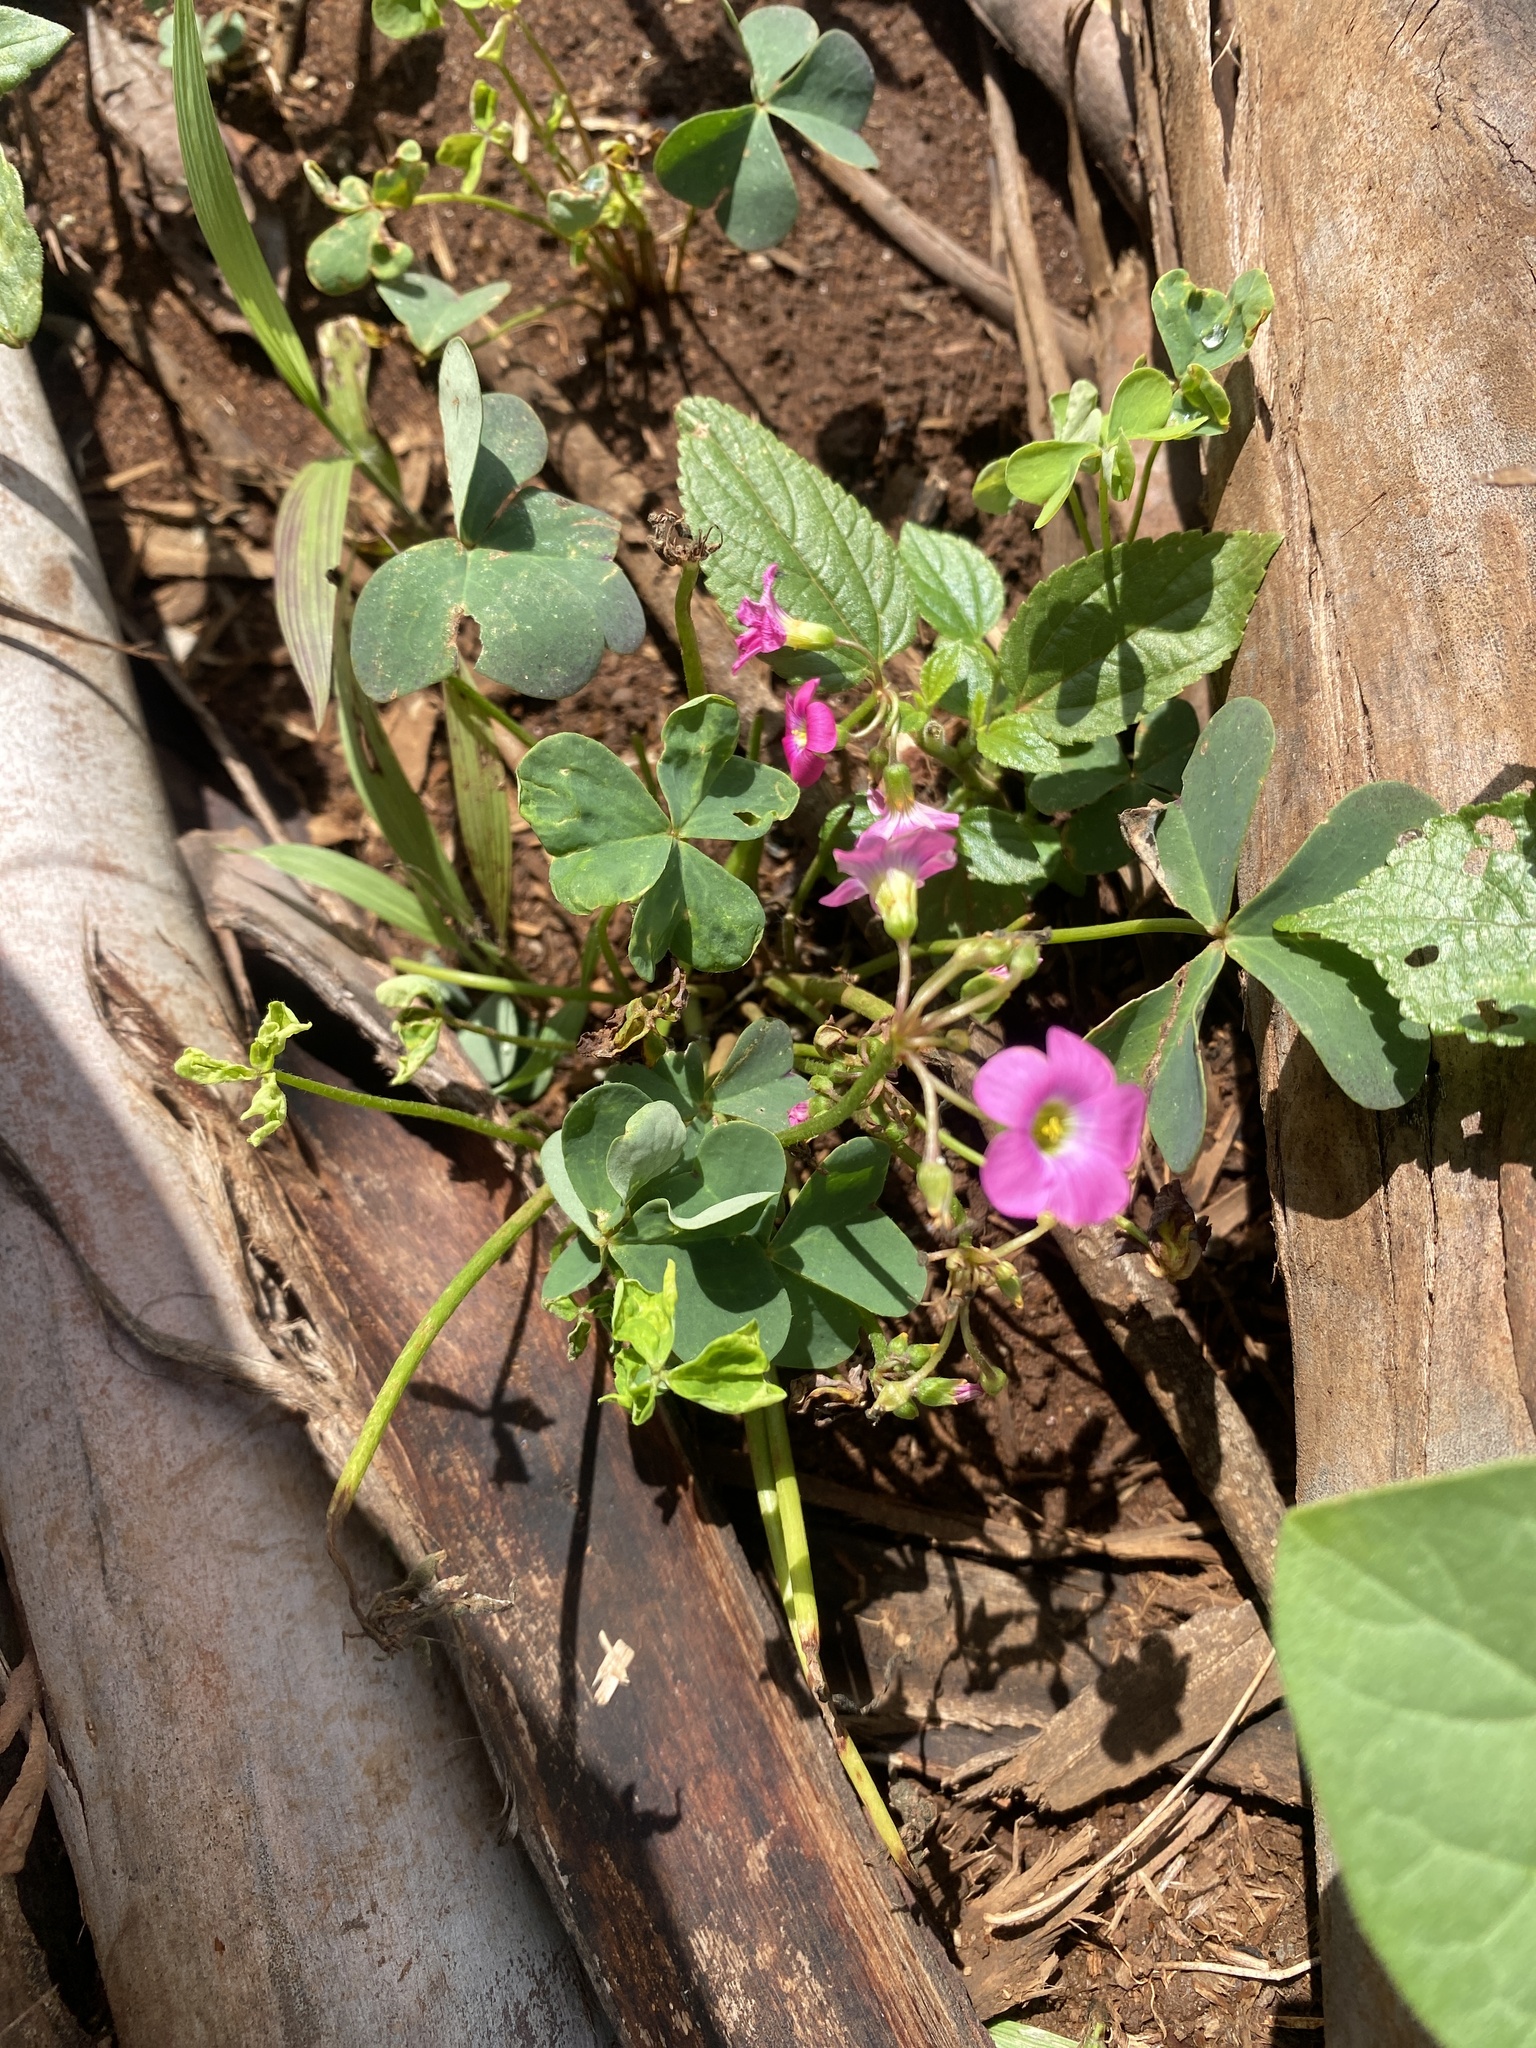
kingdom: Plantae
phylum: Tracheophyta
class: Magnoliopsida
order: Oxalidales
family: Oxalidaceae
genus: Oxalis
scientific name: Oxalis semiloba
